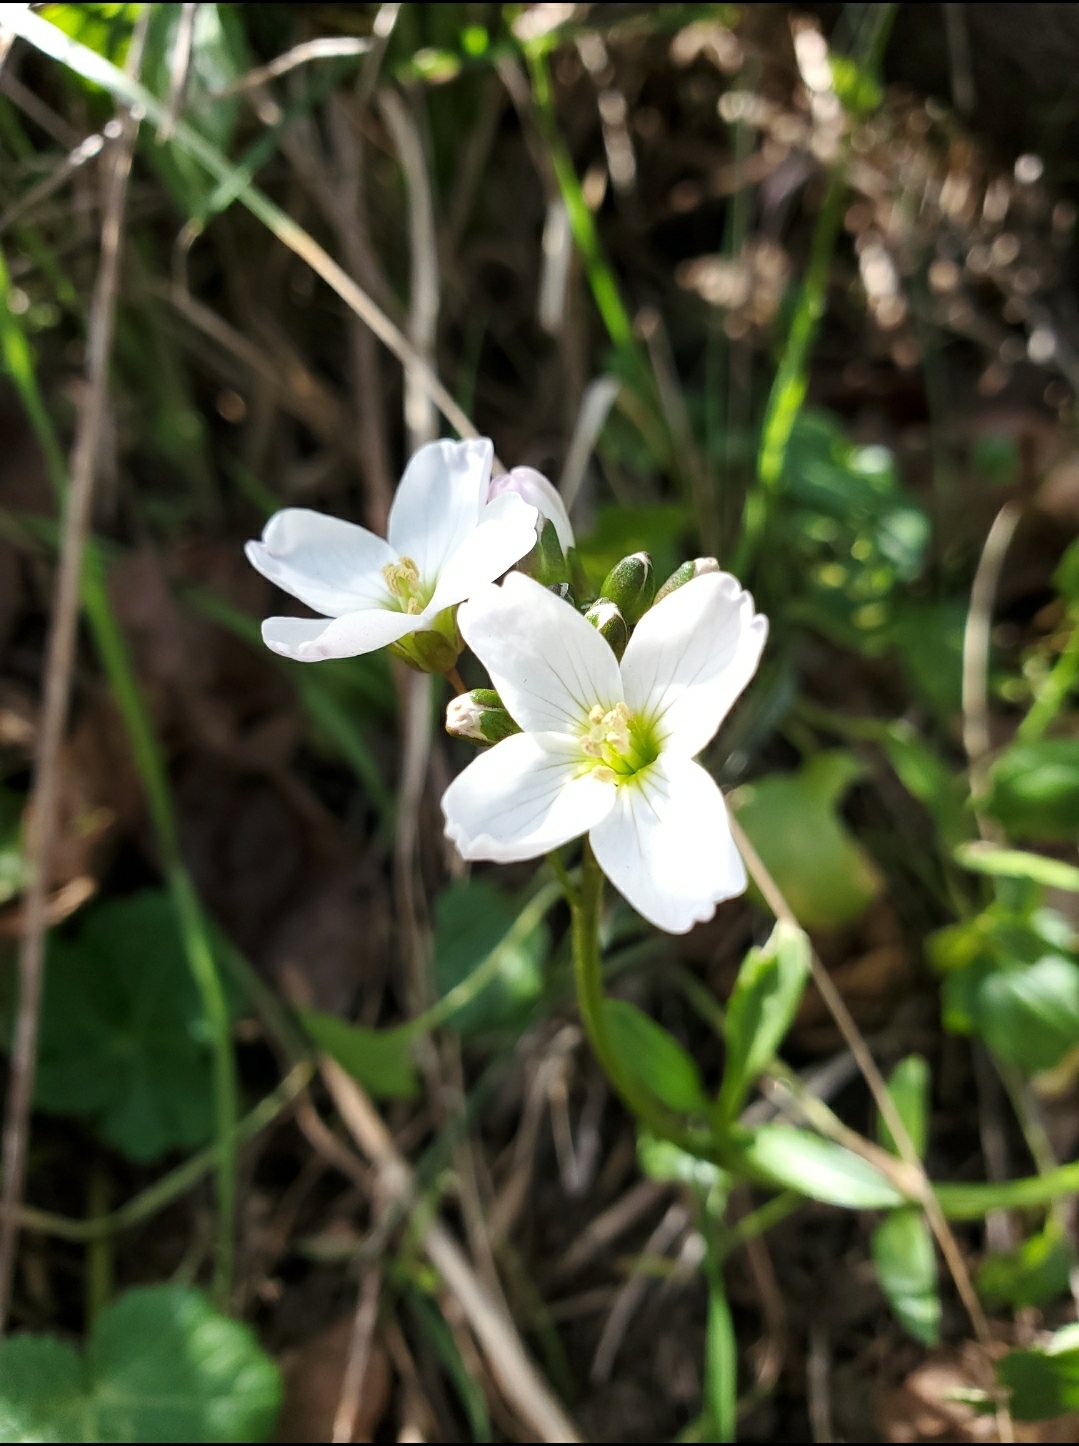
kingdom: Plantae
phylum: Tracheophyta
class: Magnoliopsida
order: Brassicales
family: Brassicaceae
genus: Cardamine
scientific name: Cardamine nuttallii
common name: Nuttall's toothwort
